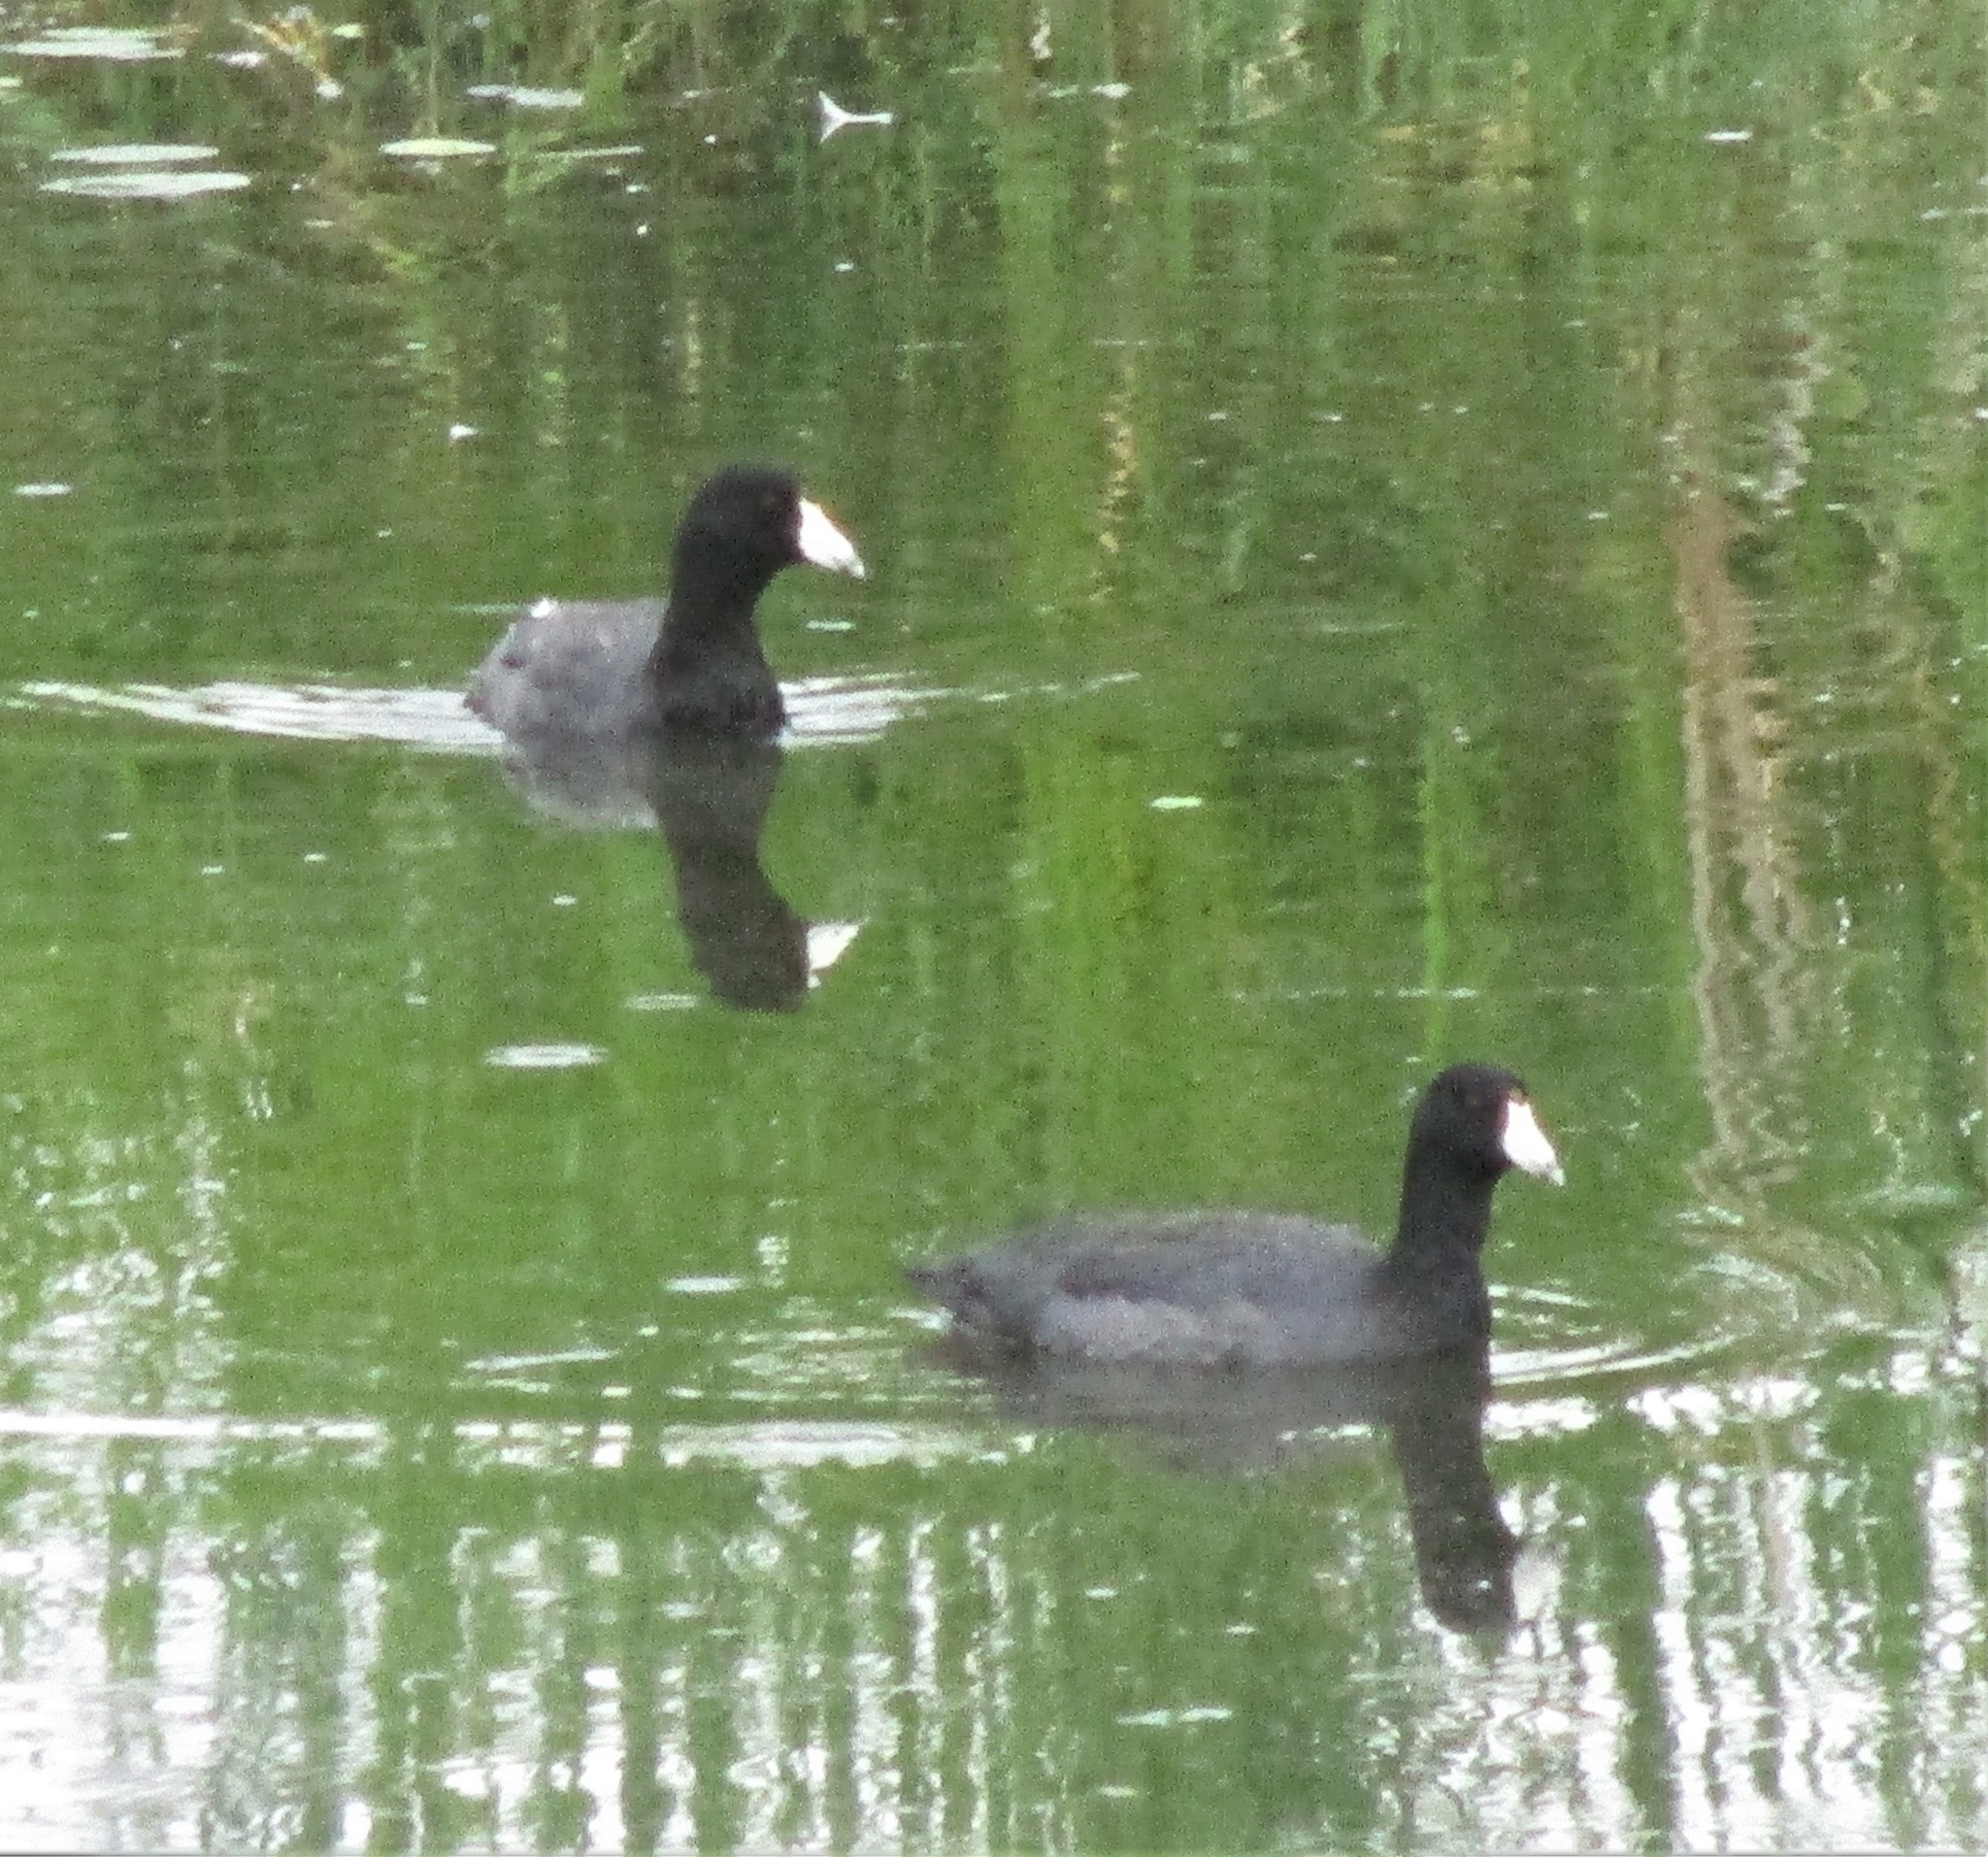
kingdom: Animalia
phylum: Chordata
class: Aves
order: Gruiformes
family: Rallidae
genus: Fulica
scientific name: Fulica americana
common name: American coot
